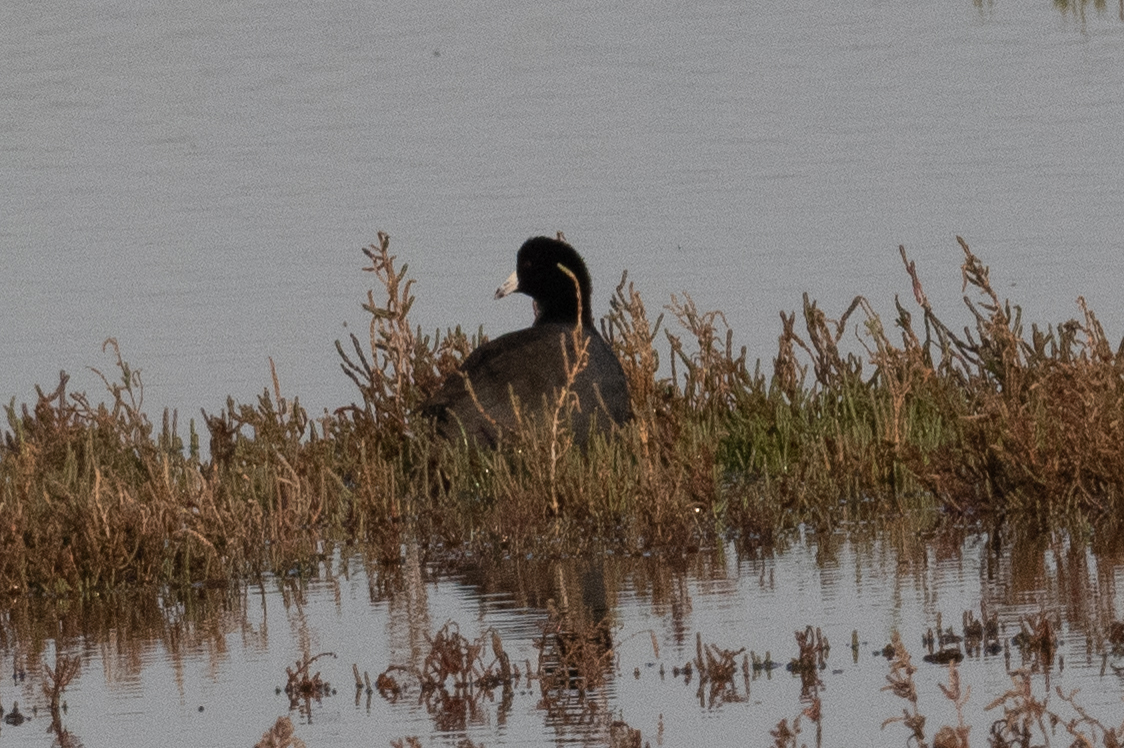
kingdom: Animalia
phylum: Chordata
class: Aves
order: Gruiformes
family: Rallidae
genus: Fulica
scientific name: Fulica americana
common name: American coot
